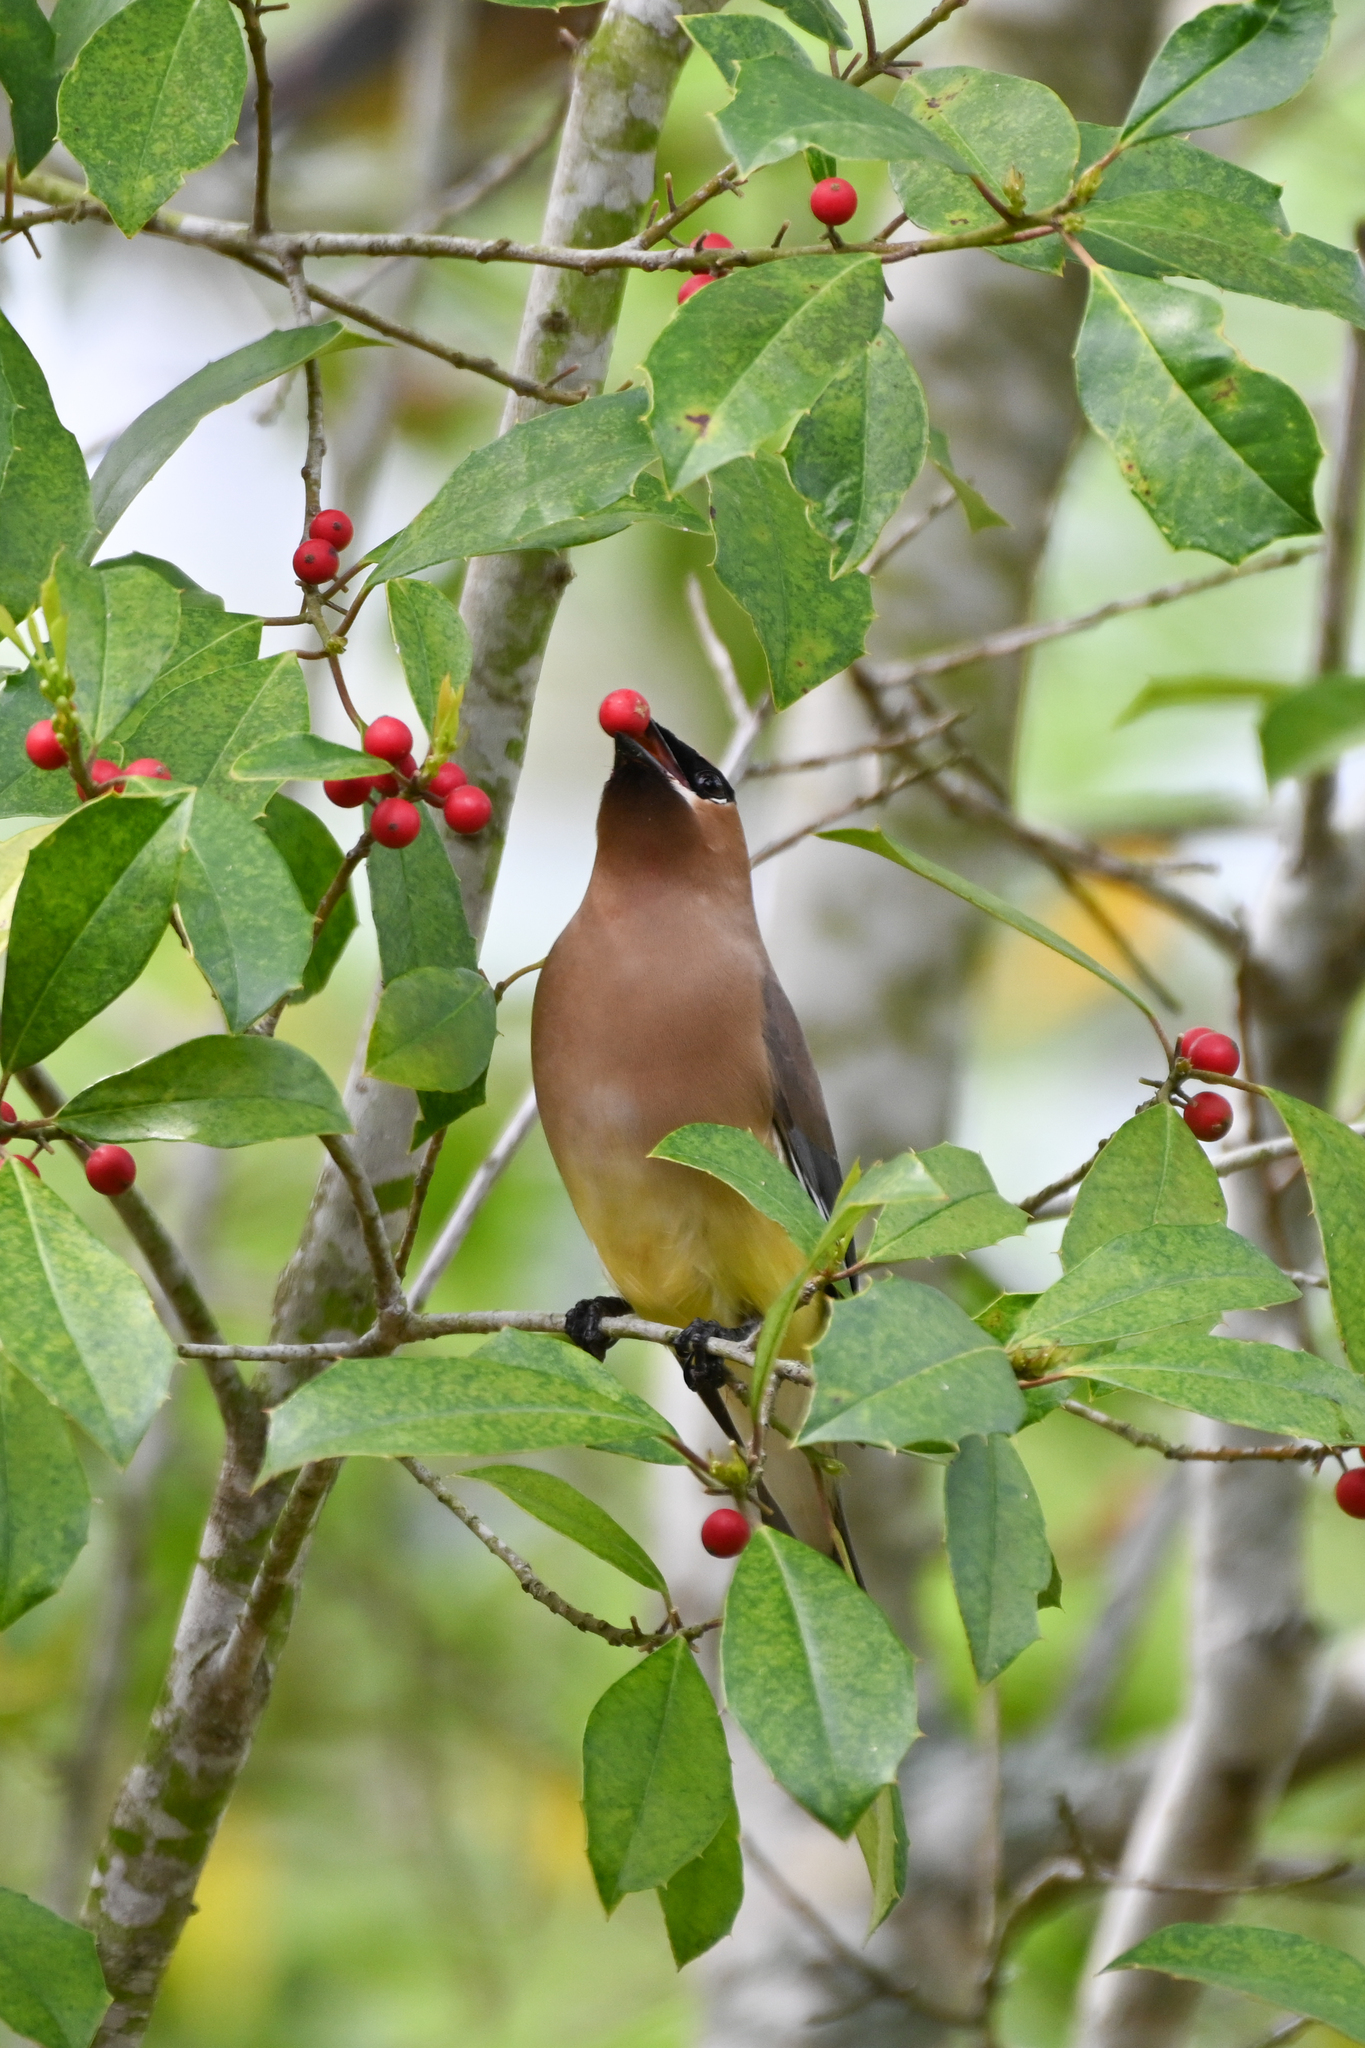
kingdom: Animalia
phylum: Chordata
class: Aves
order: Passeriformes
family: Bombycillidae
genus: Bombycilla
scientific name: Bombycilla cedrorum
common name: Cedar waxwing
